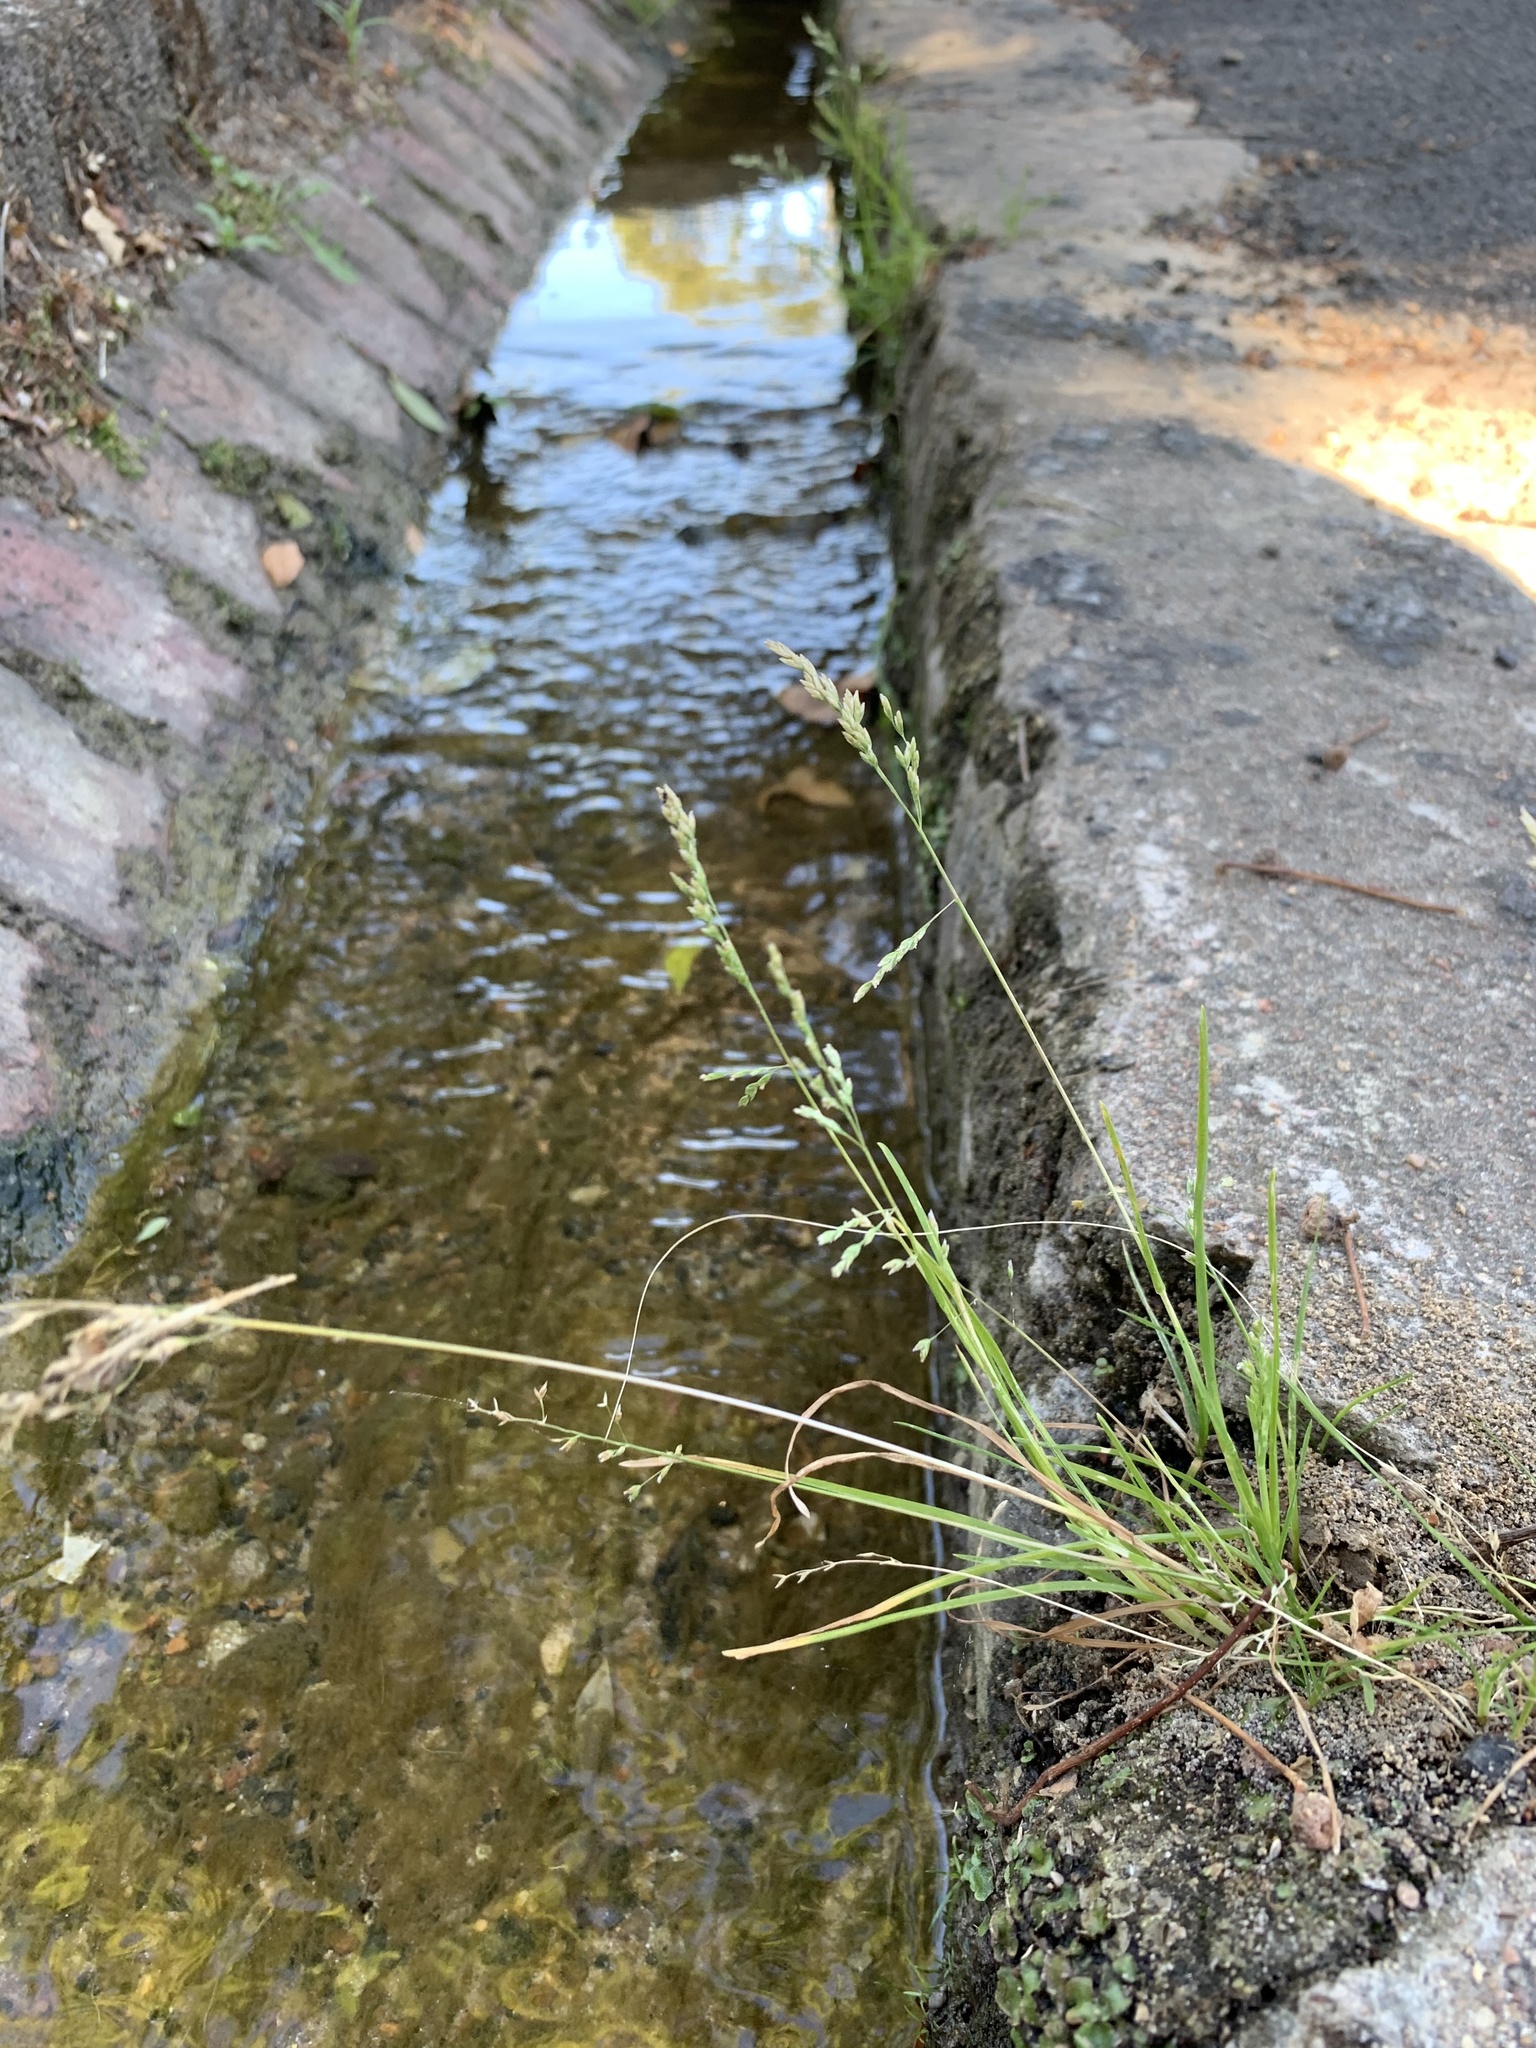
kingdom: Plantae
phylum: Tracheophyta
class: Liliopsida
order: Poales
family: Poaceae
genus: Poa
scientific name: Poa annua
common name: Annual bluegrass
